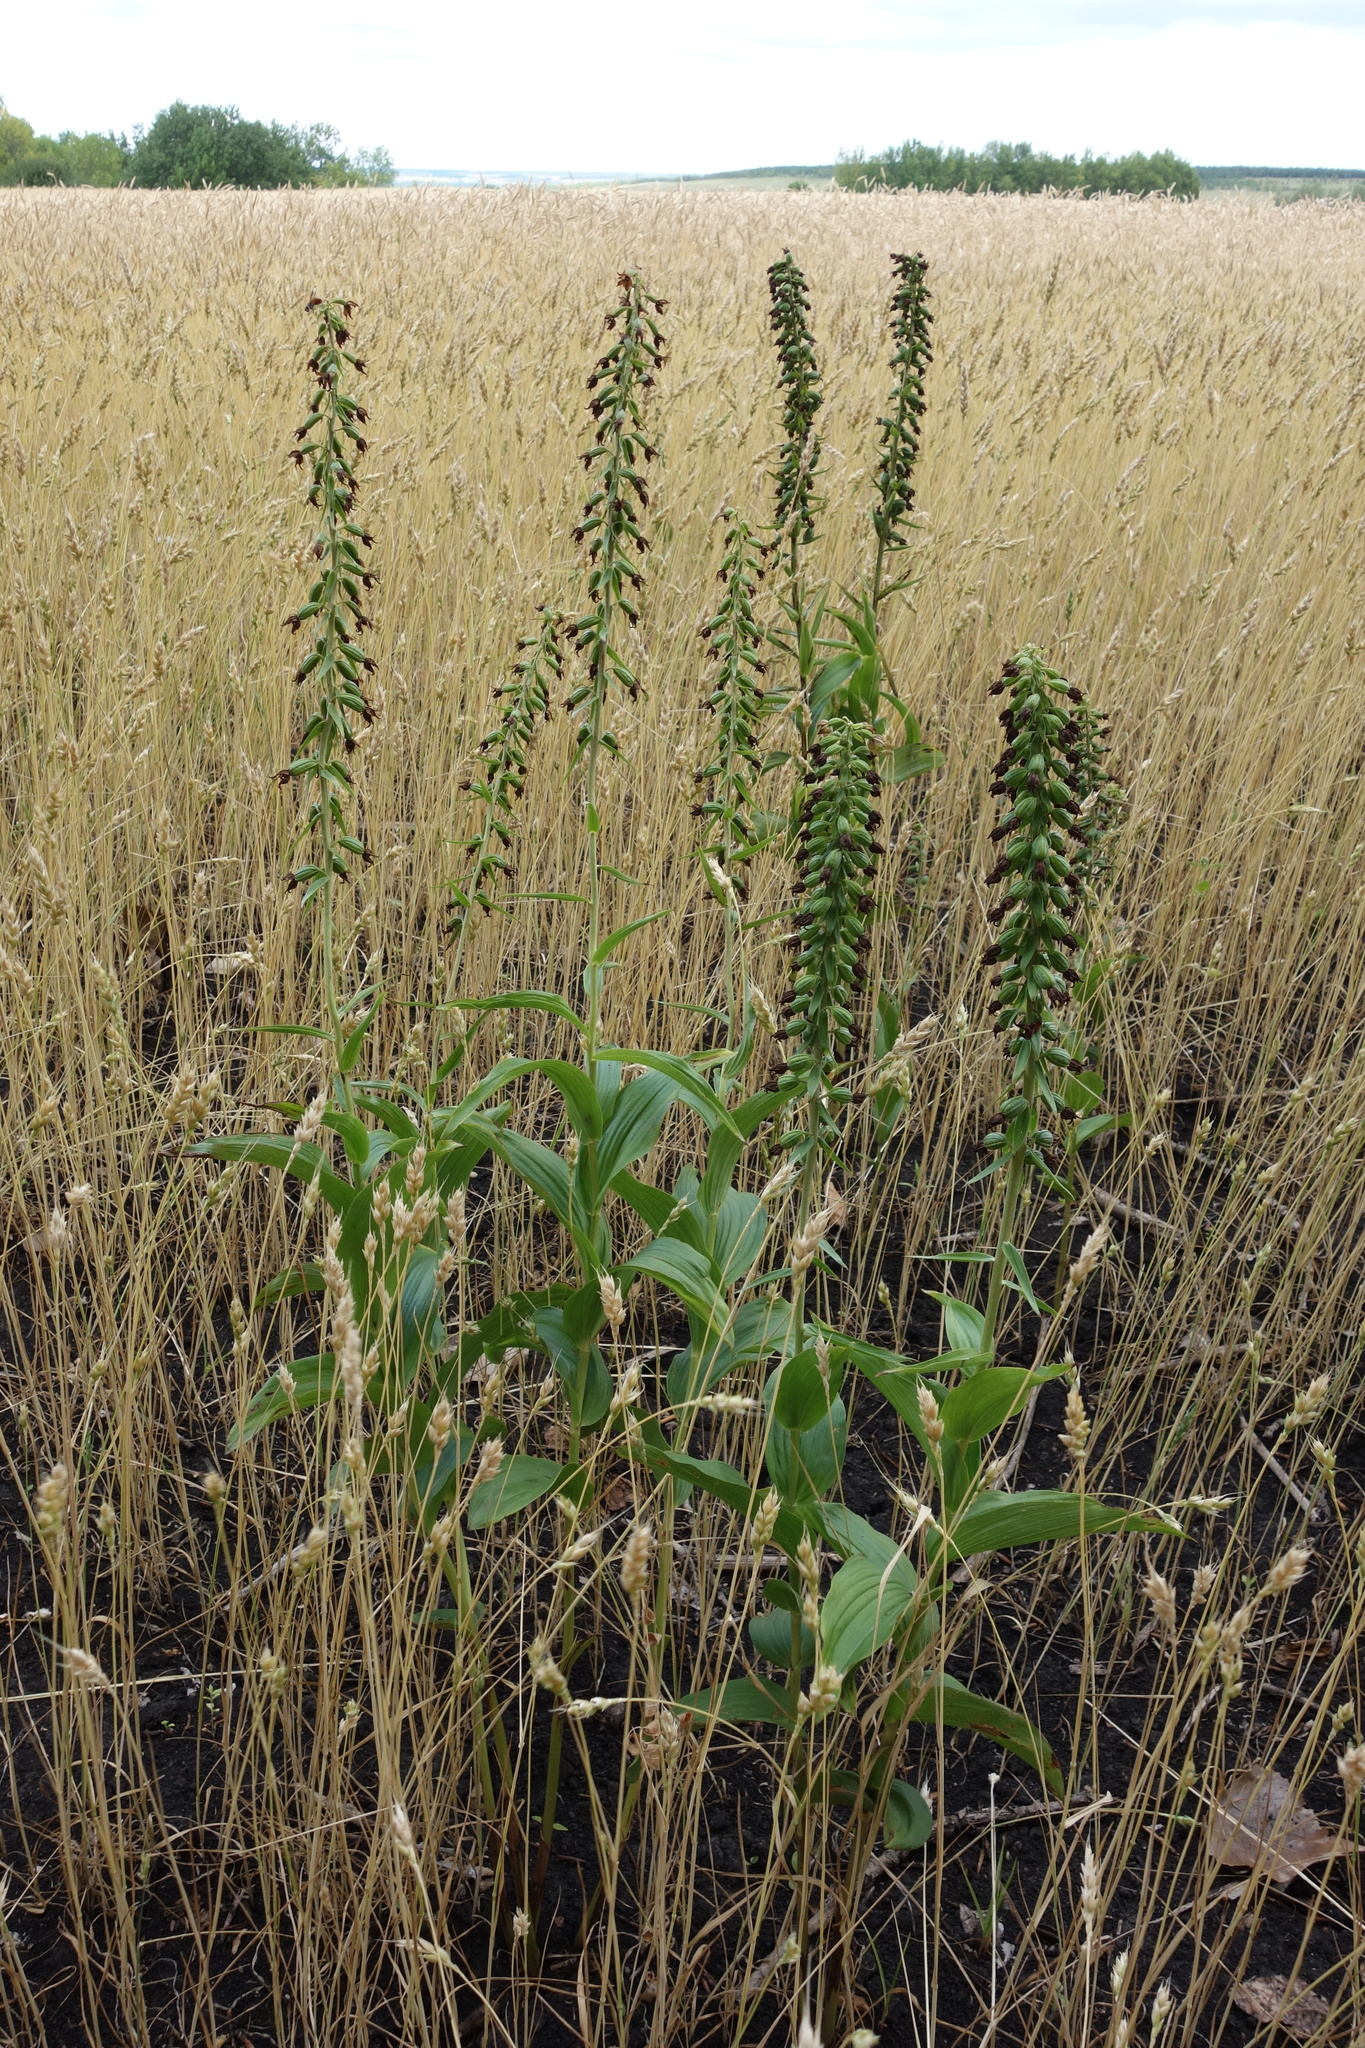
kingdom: Plantae
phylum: Tracheophyta
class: Liliopsida
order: Asparagales
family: Orchidaceae
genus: Epipactis
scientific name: Epipactis helleborine
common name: Broad-leaved helleborine
